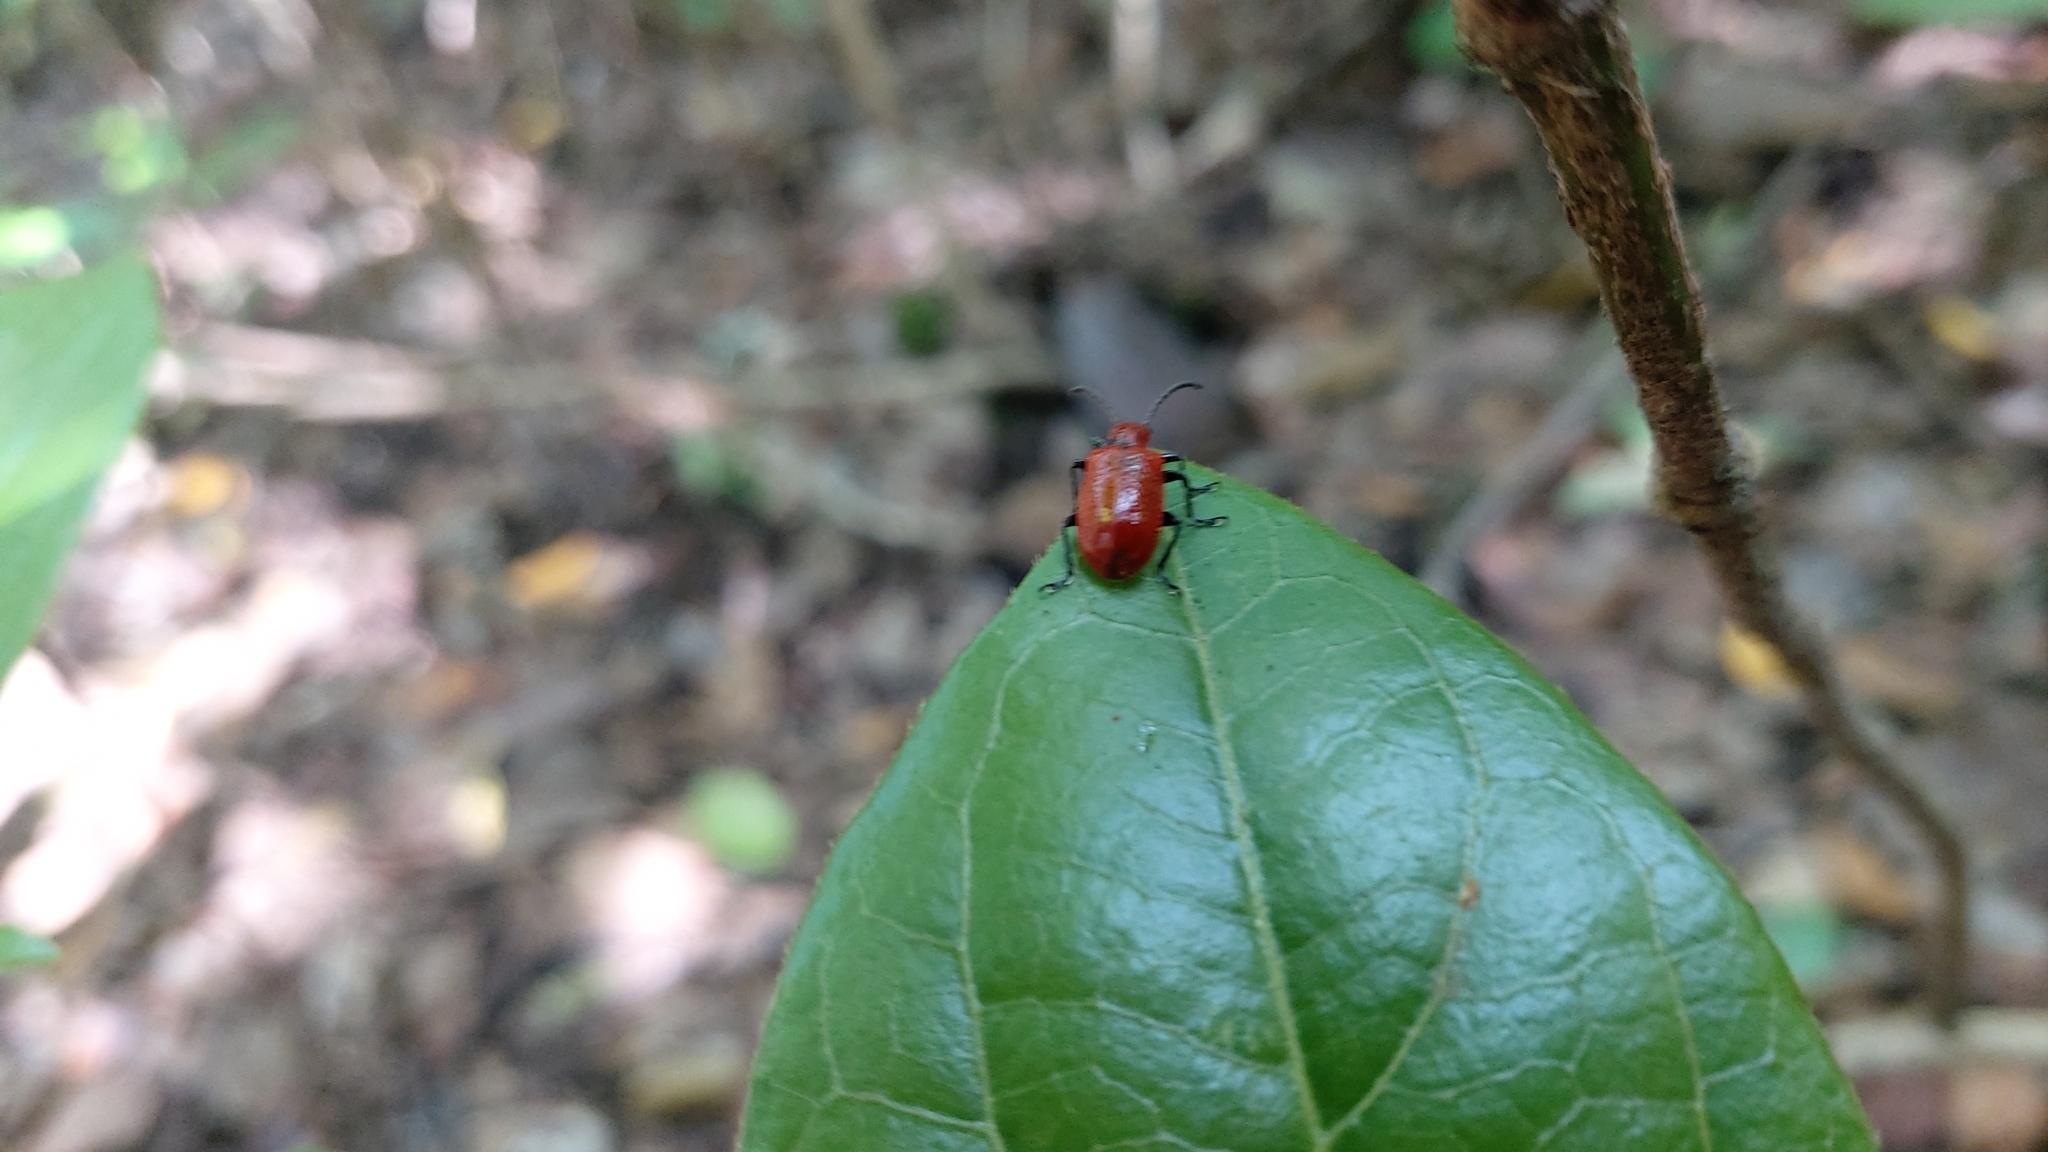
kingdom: Animalia
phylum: Arthropoda
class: Insecta
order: Coleoptera
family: Chrysomelidae
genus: Lilioceris
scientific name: Lilioceris lilii
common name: Lily beetle
